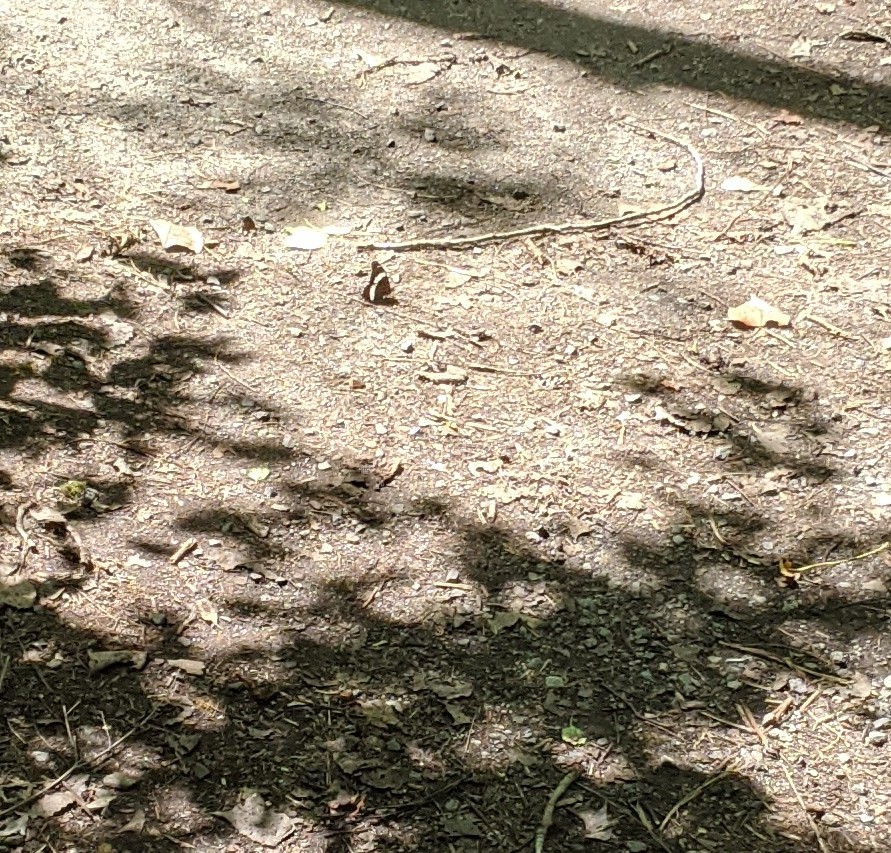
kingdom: Animalia
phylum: Arthropoda
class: Insecta
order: Lepidoptera
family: Nymphalidae
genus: Limenitis
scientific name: Limenitis arthemis
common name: Red-spotted admiral
